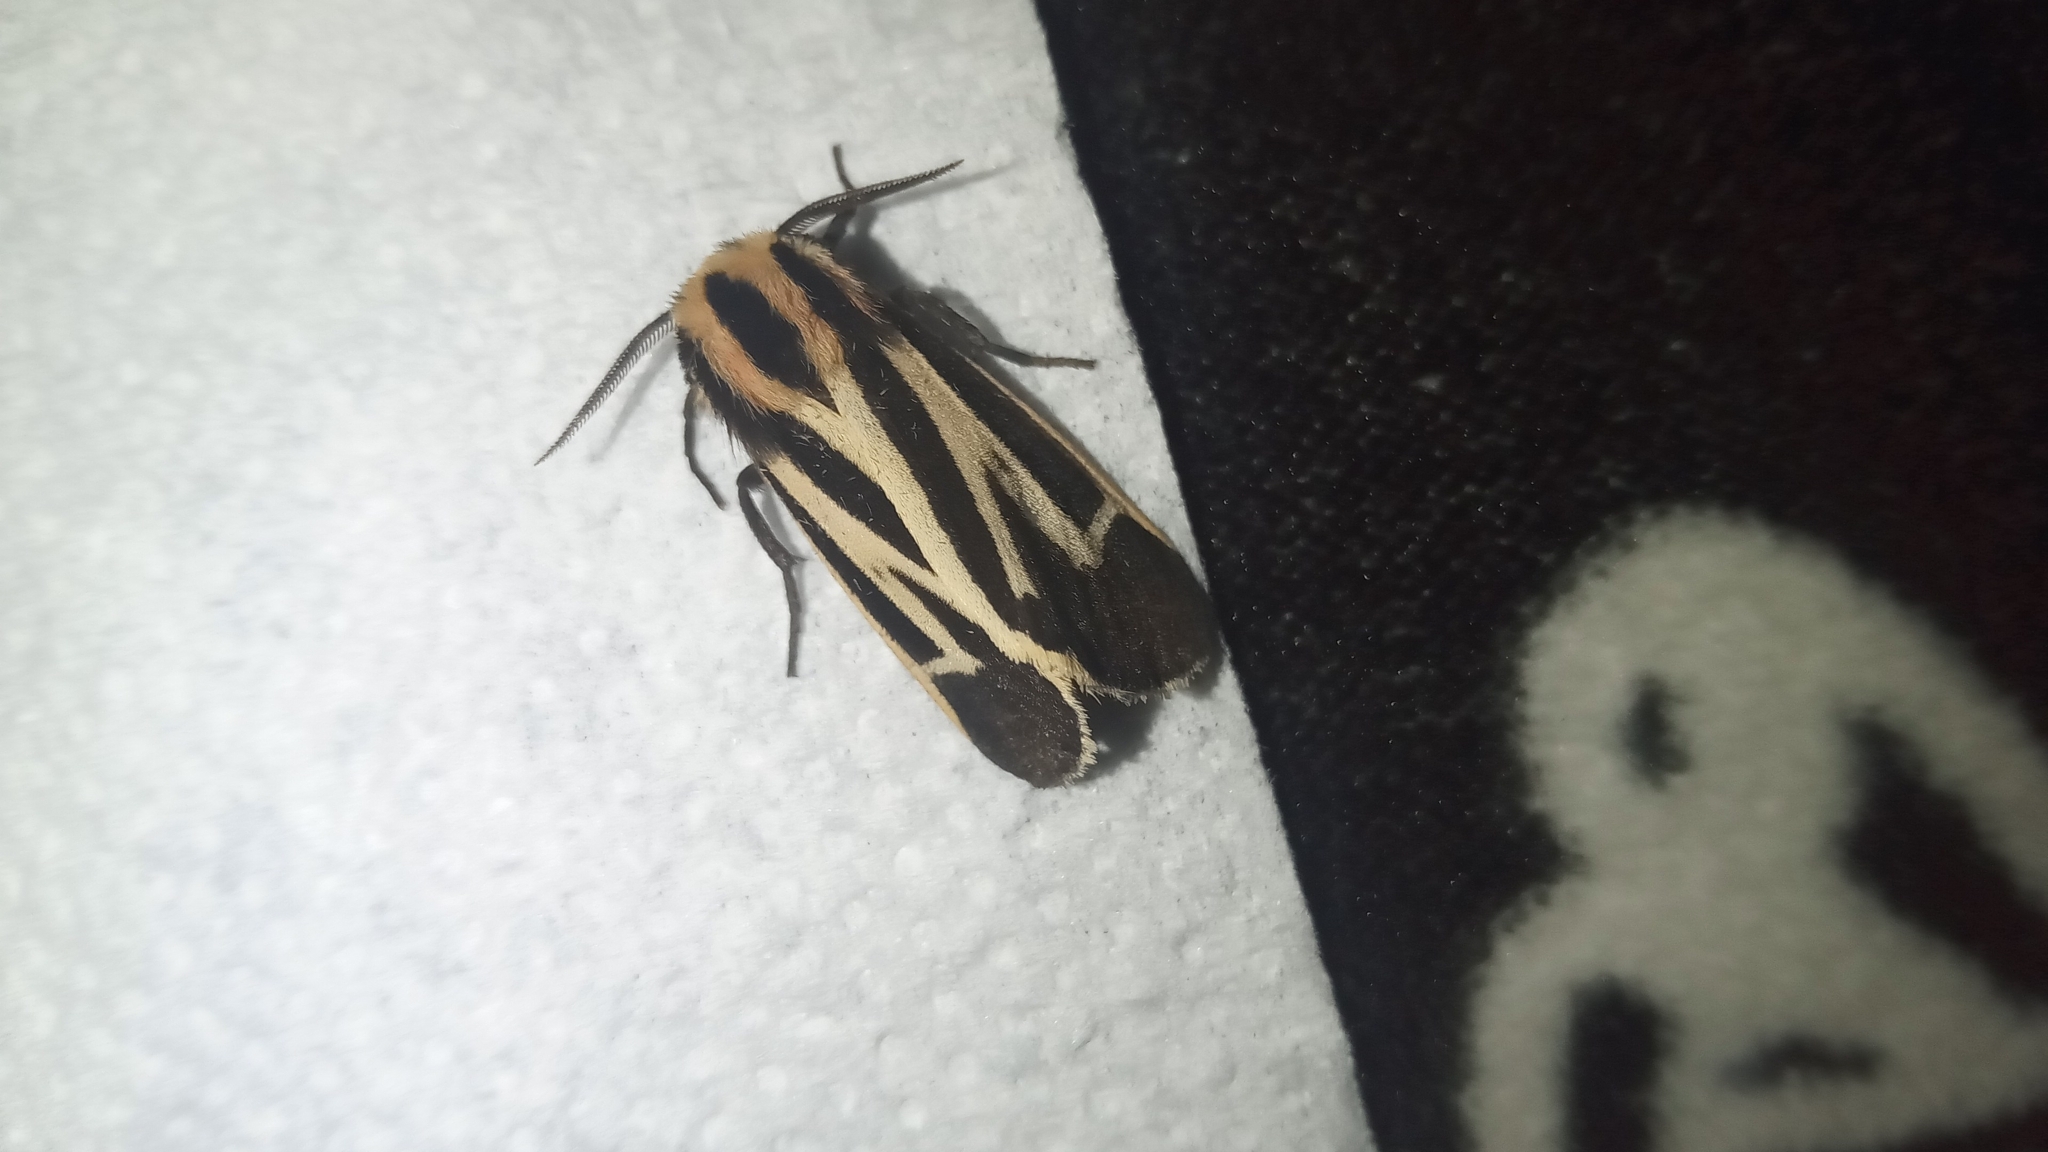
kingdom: Animalia
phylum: Arthropoda
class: Insecta
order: Lepidoptera
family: Erebidae
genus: Apantesis
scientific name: Apantesis vittata
